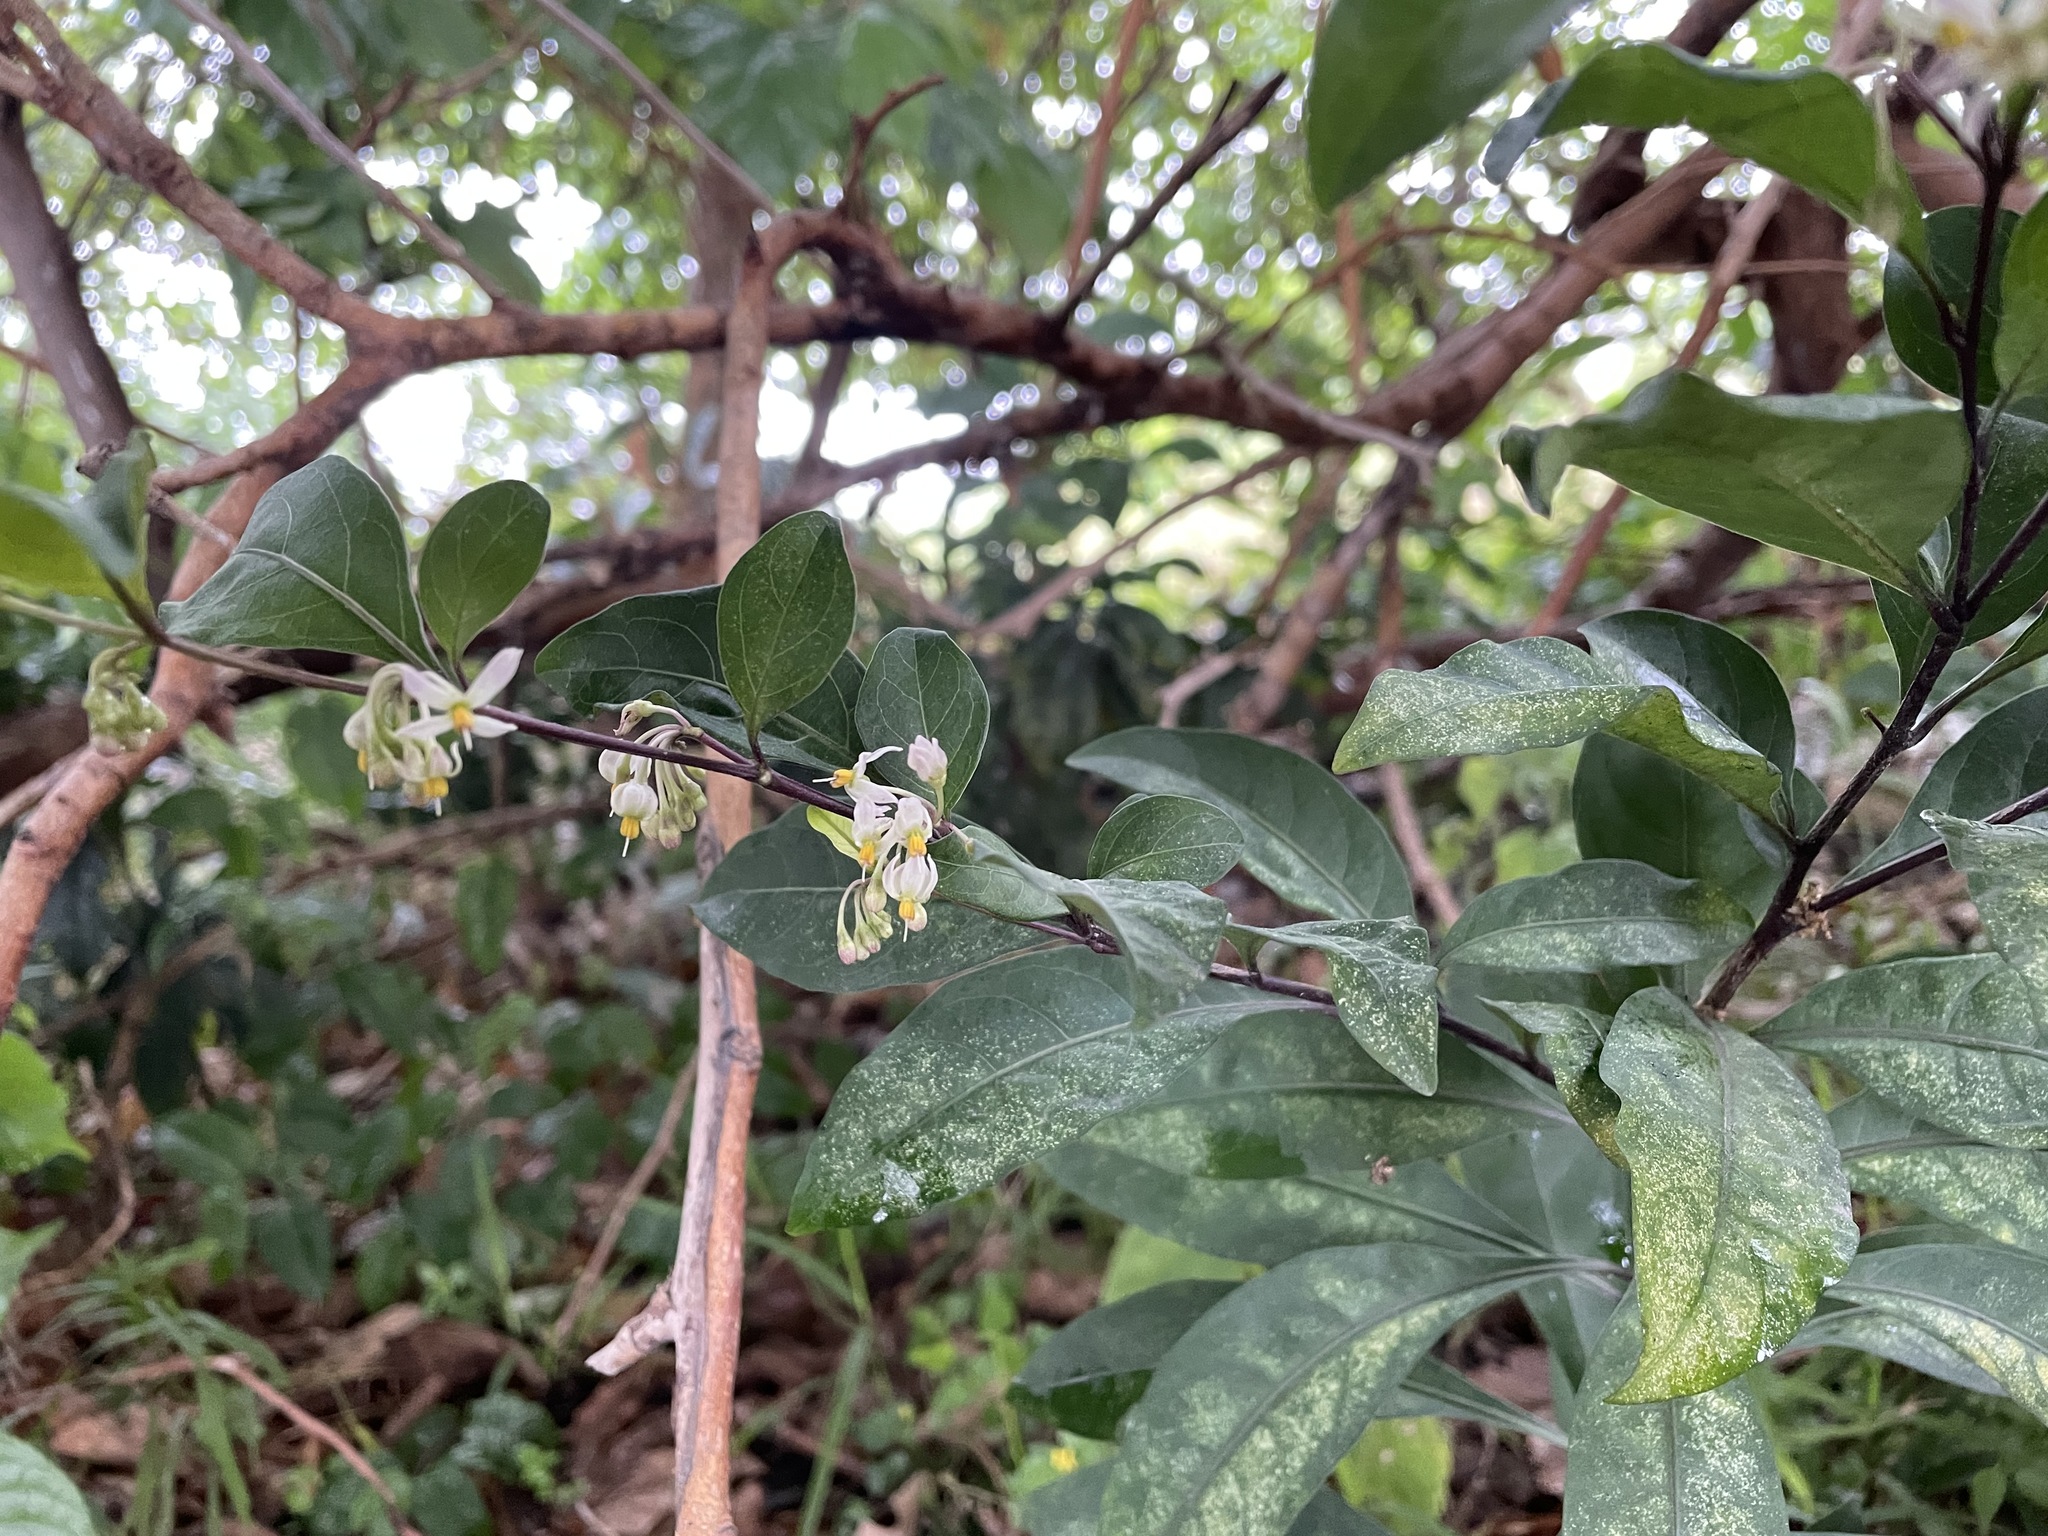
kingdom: Plantae
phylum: Tracheophyta
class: Magnoliopsida
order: Solanales
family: Solanaceae
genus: Solanum
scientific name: Solanum diphyllum
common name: Twoleaf nightshade
